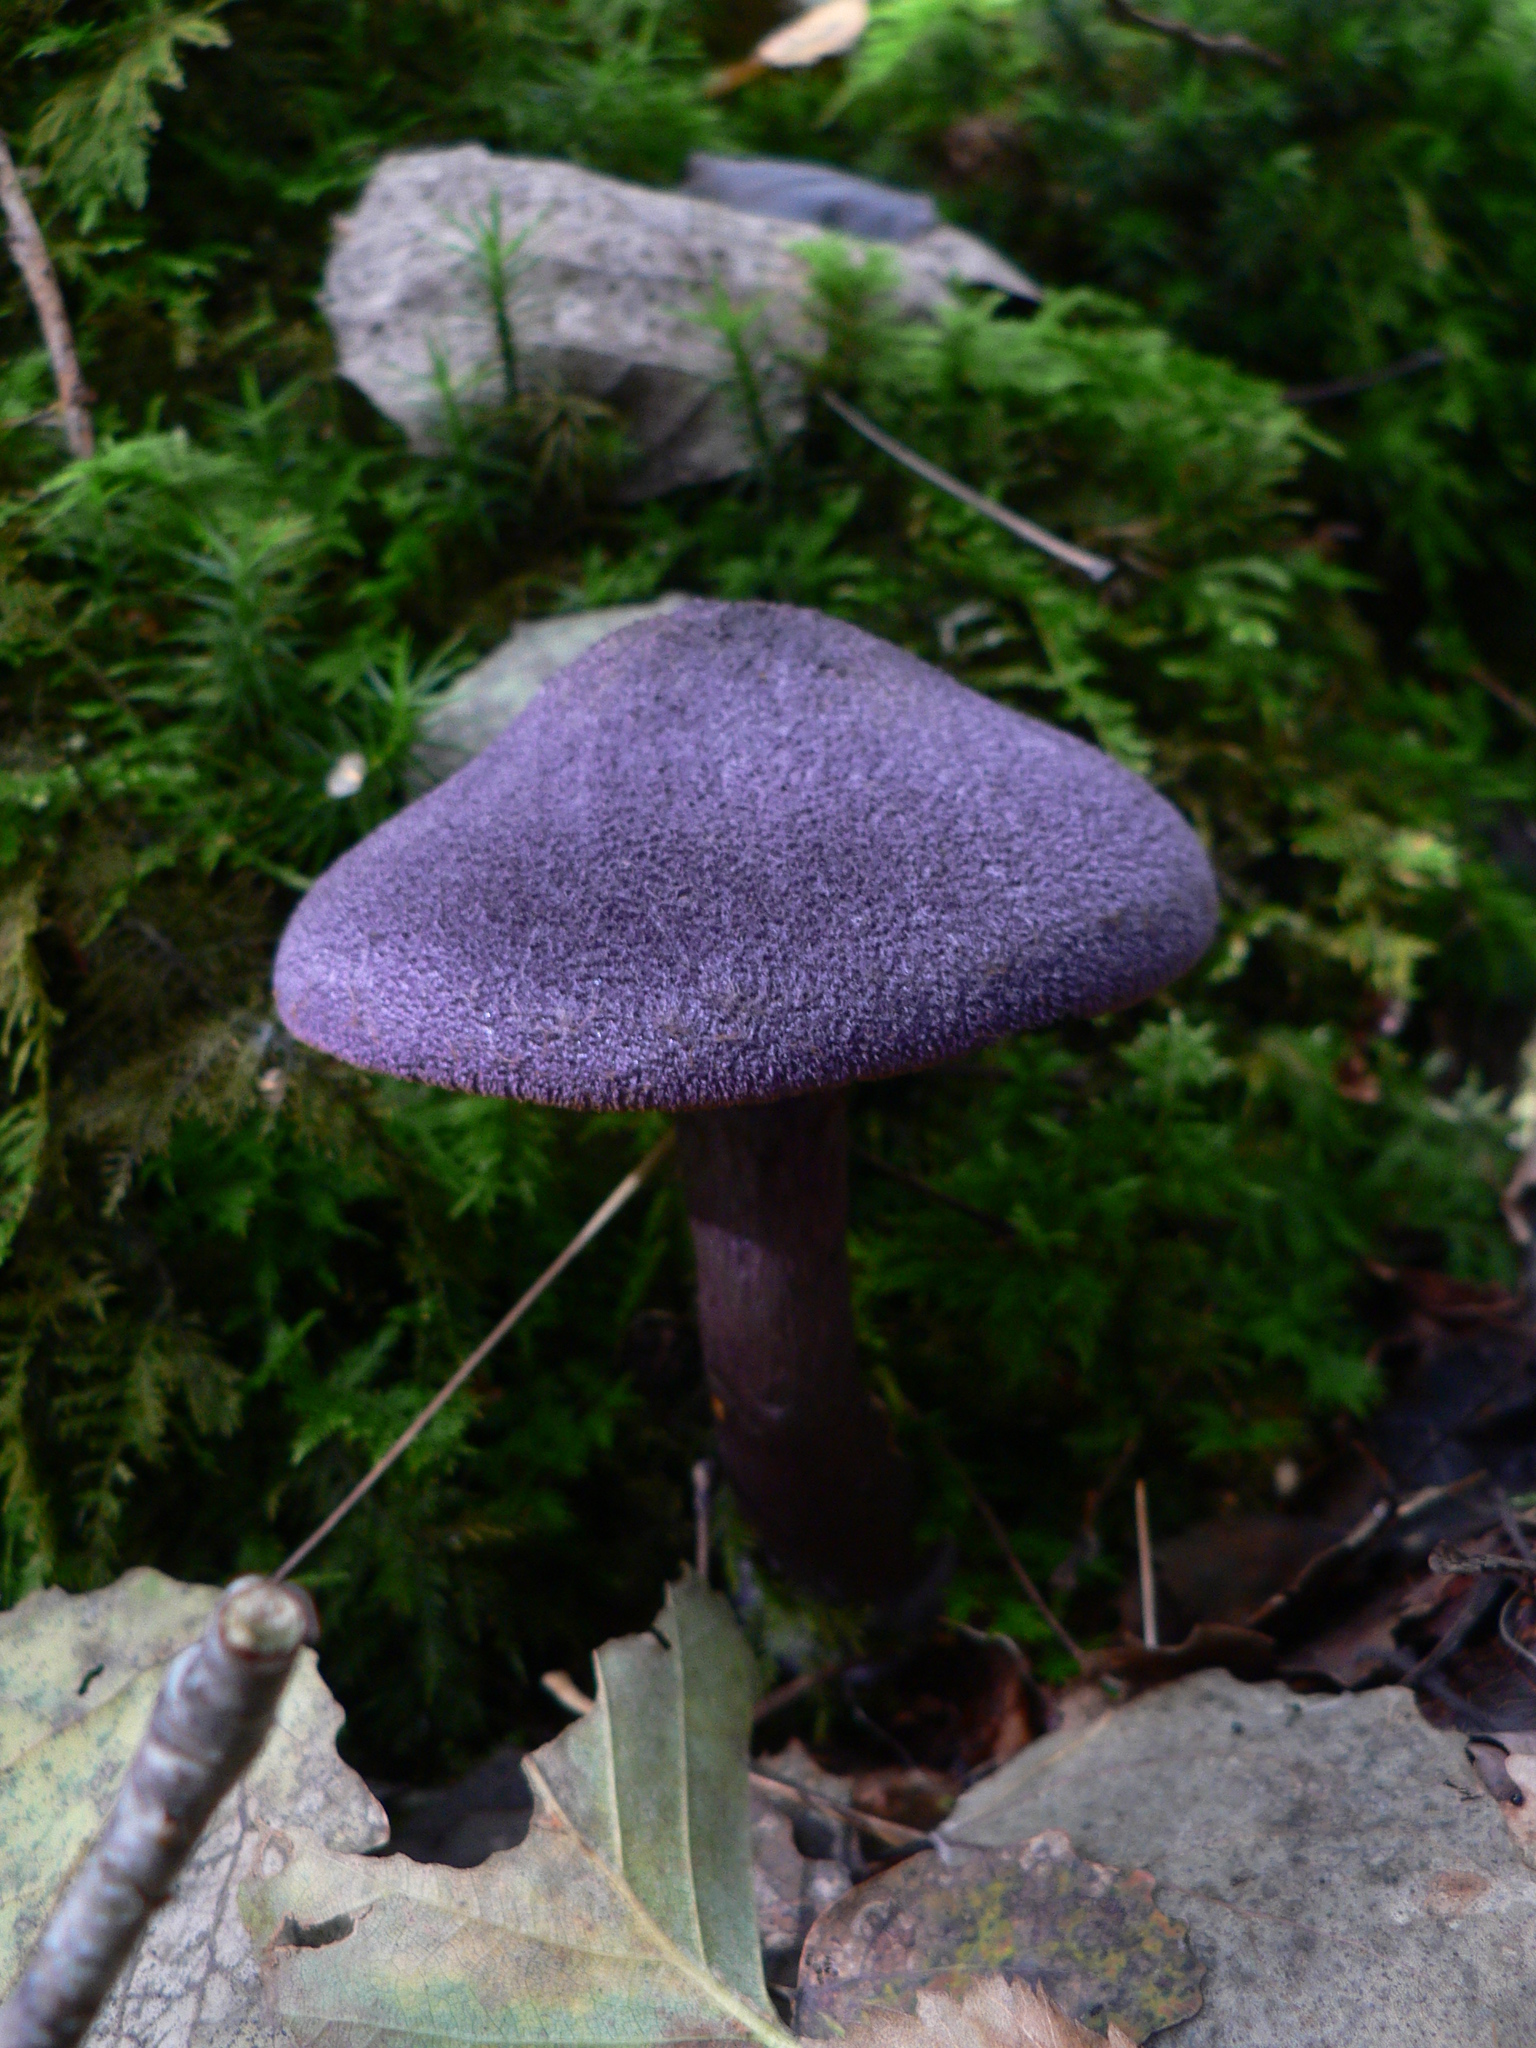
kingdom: Fungi
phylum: Basidiomycota
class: Agaricomycetes
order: Agaricales
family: Cortinariaceae
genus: Cortinarius
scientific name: Cortinarius violaceus
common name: Violet webcap
